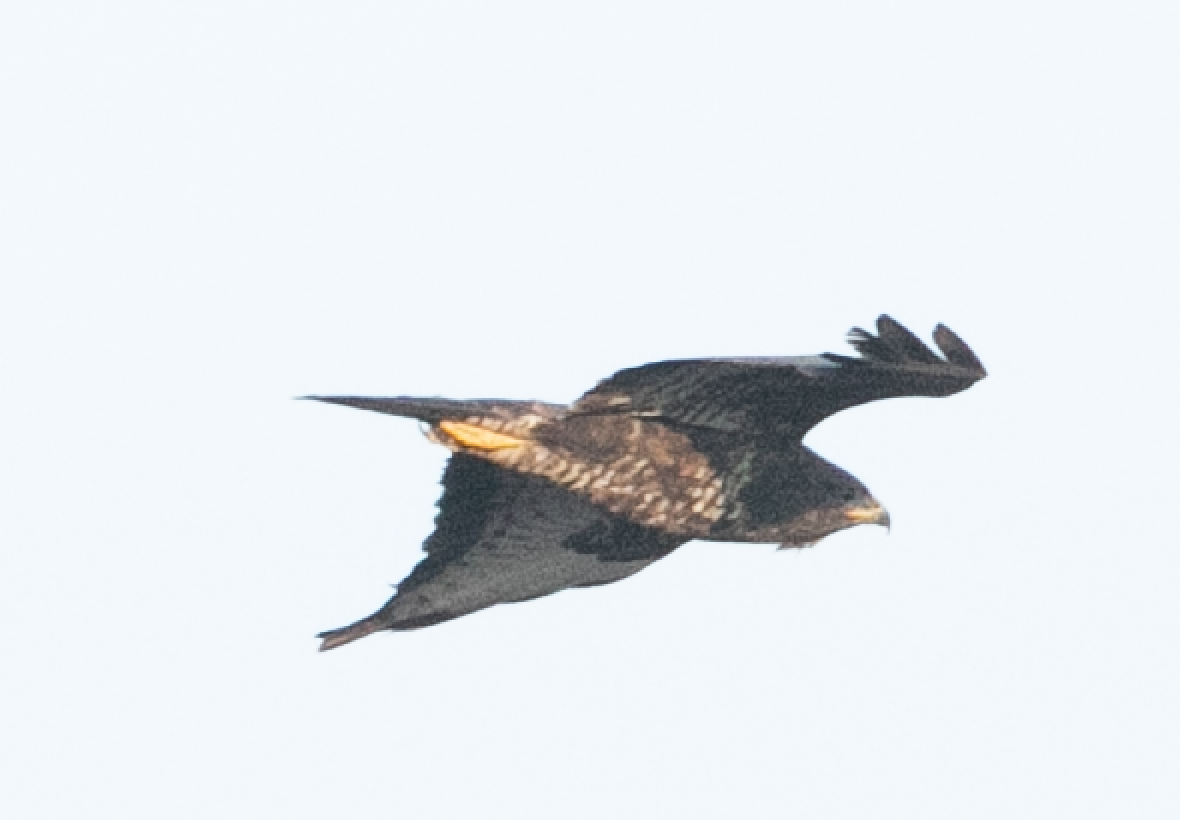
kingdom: Animalia
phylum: Chordata
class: Aves
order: Accipitriformes
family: Accipitridae
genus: Buteo
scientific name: Buteo buteo
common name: Common buzzard
